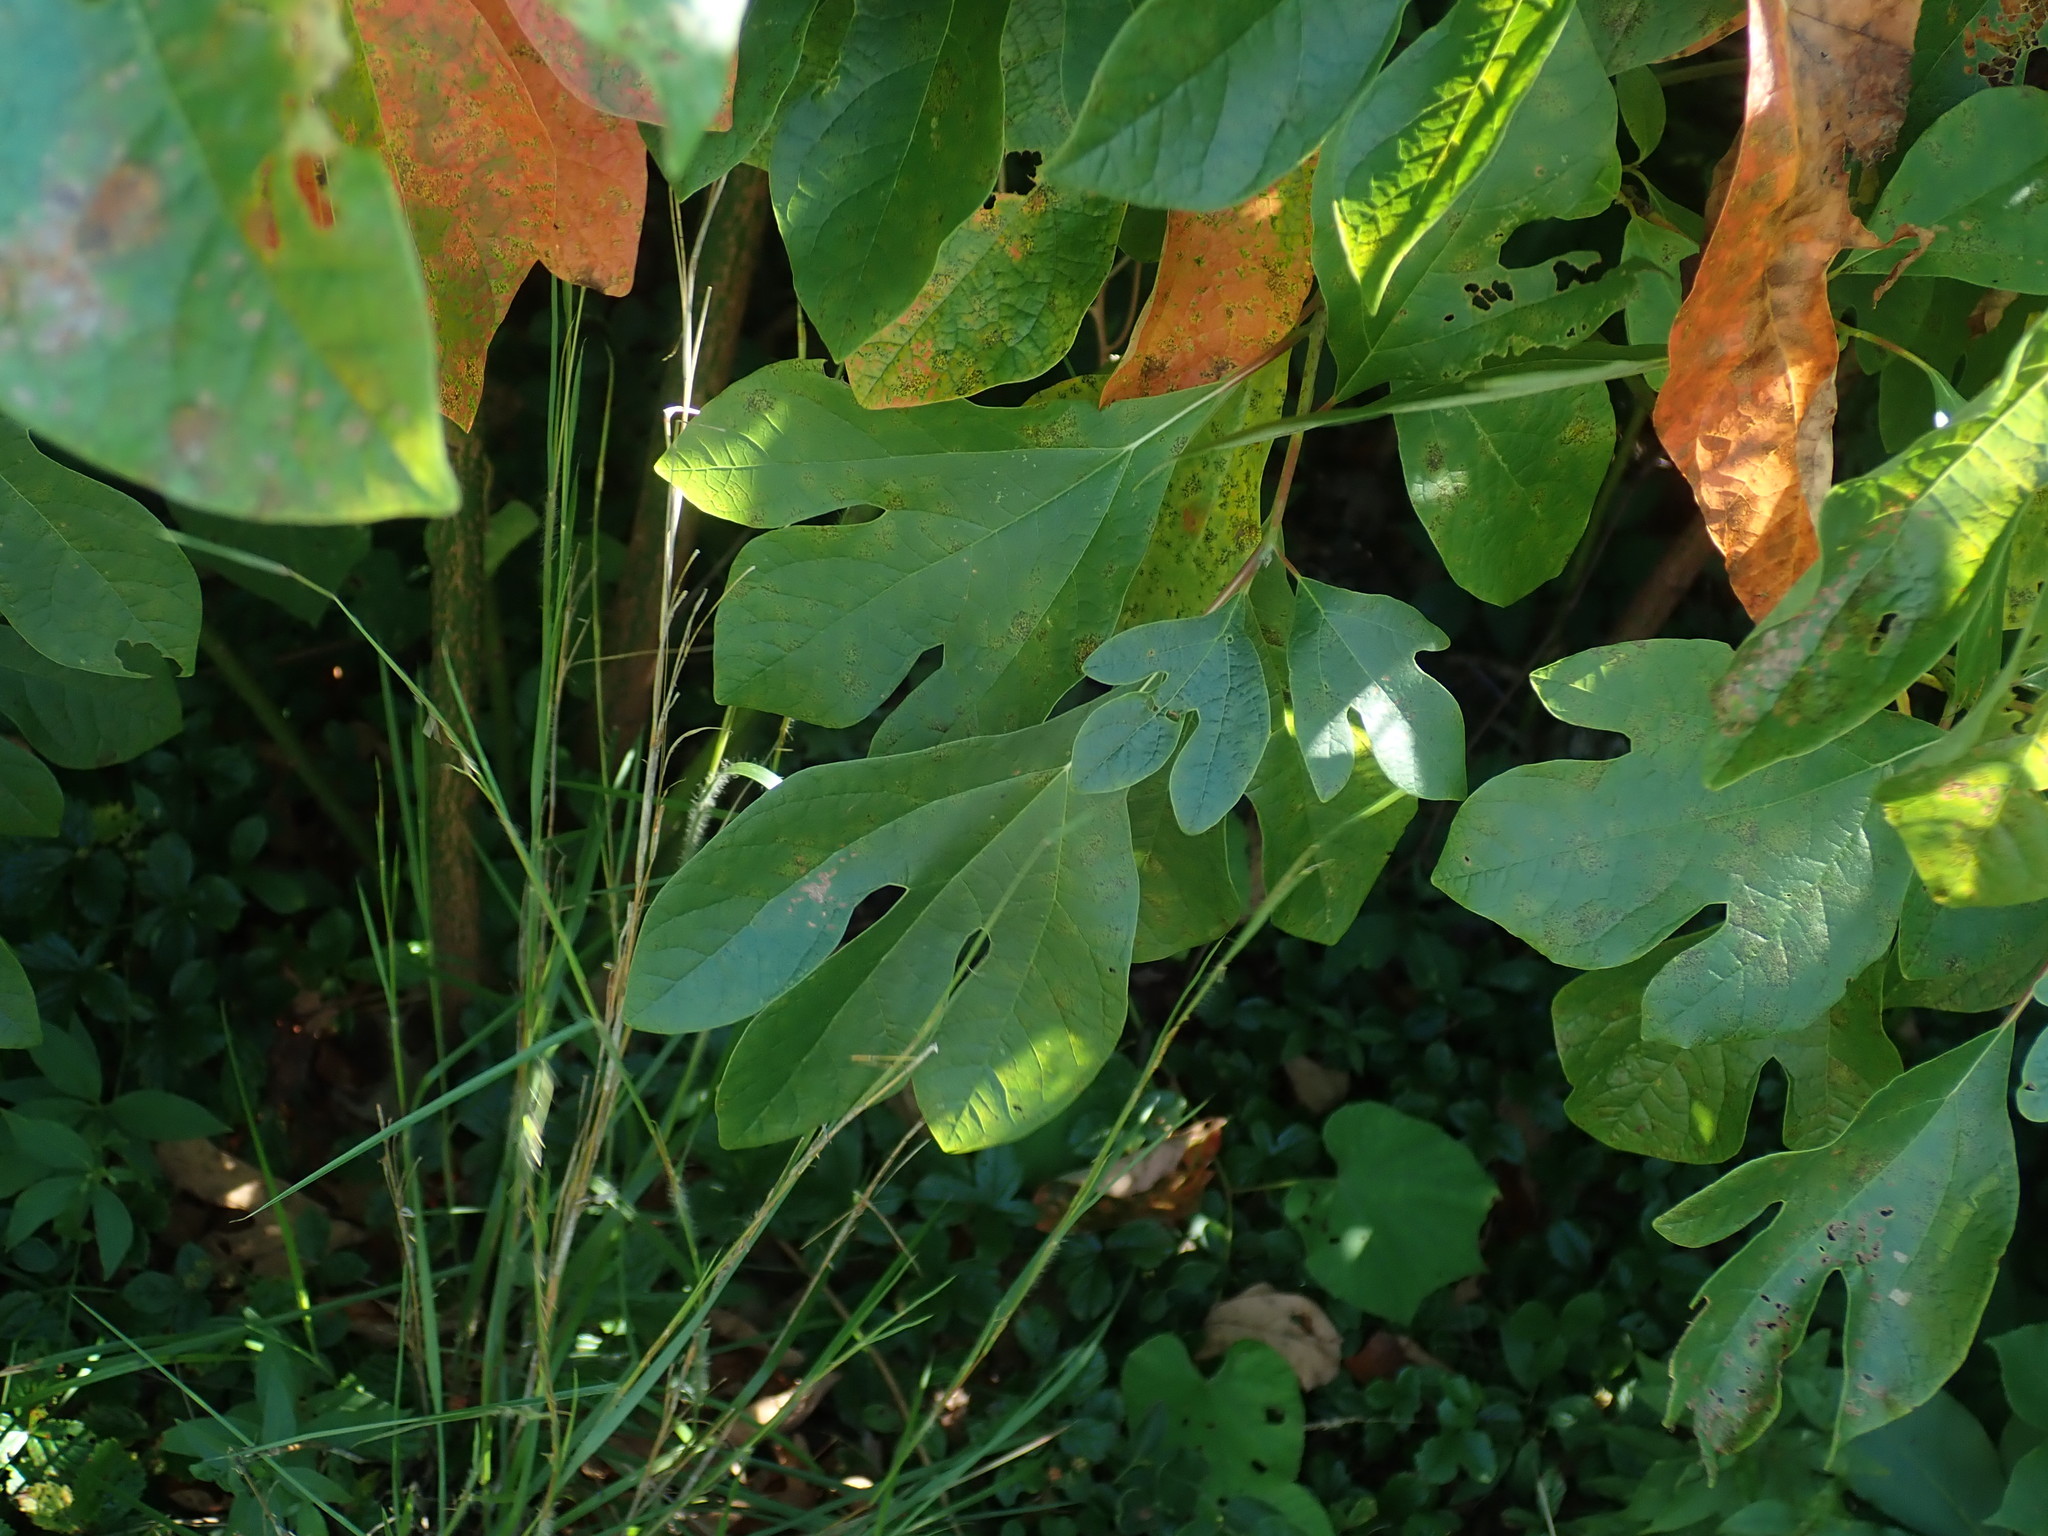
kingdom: Plantae
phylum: Tracheophyta
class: Magnoliopsida
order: Laurales
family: Lauraceae
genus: Sassafras
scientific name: Sassafras albidum
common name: Sassafras
